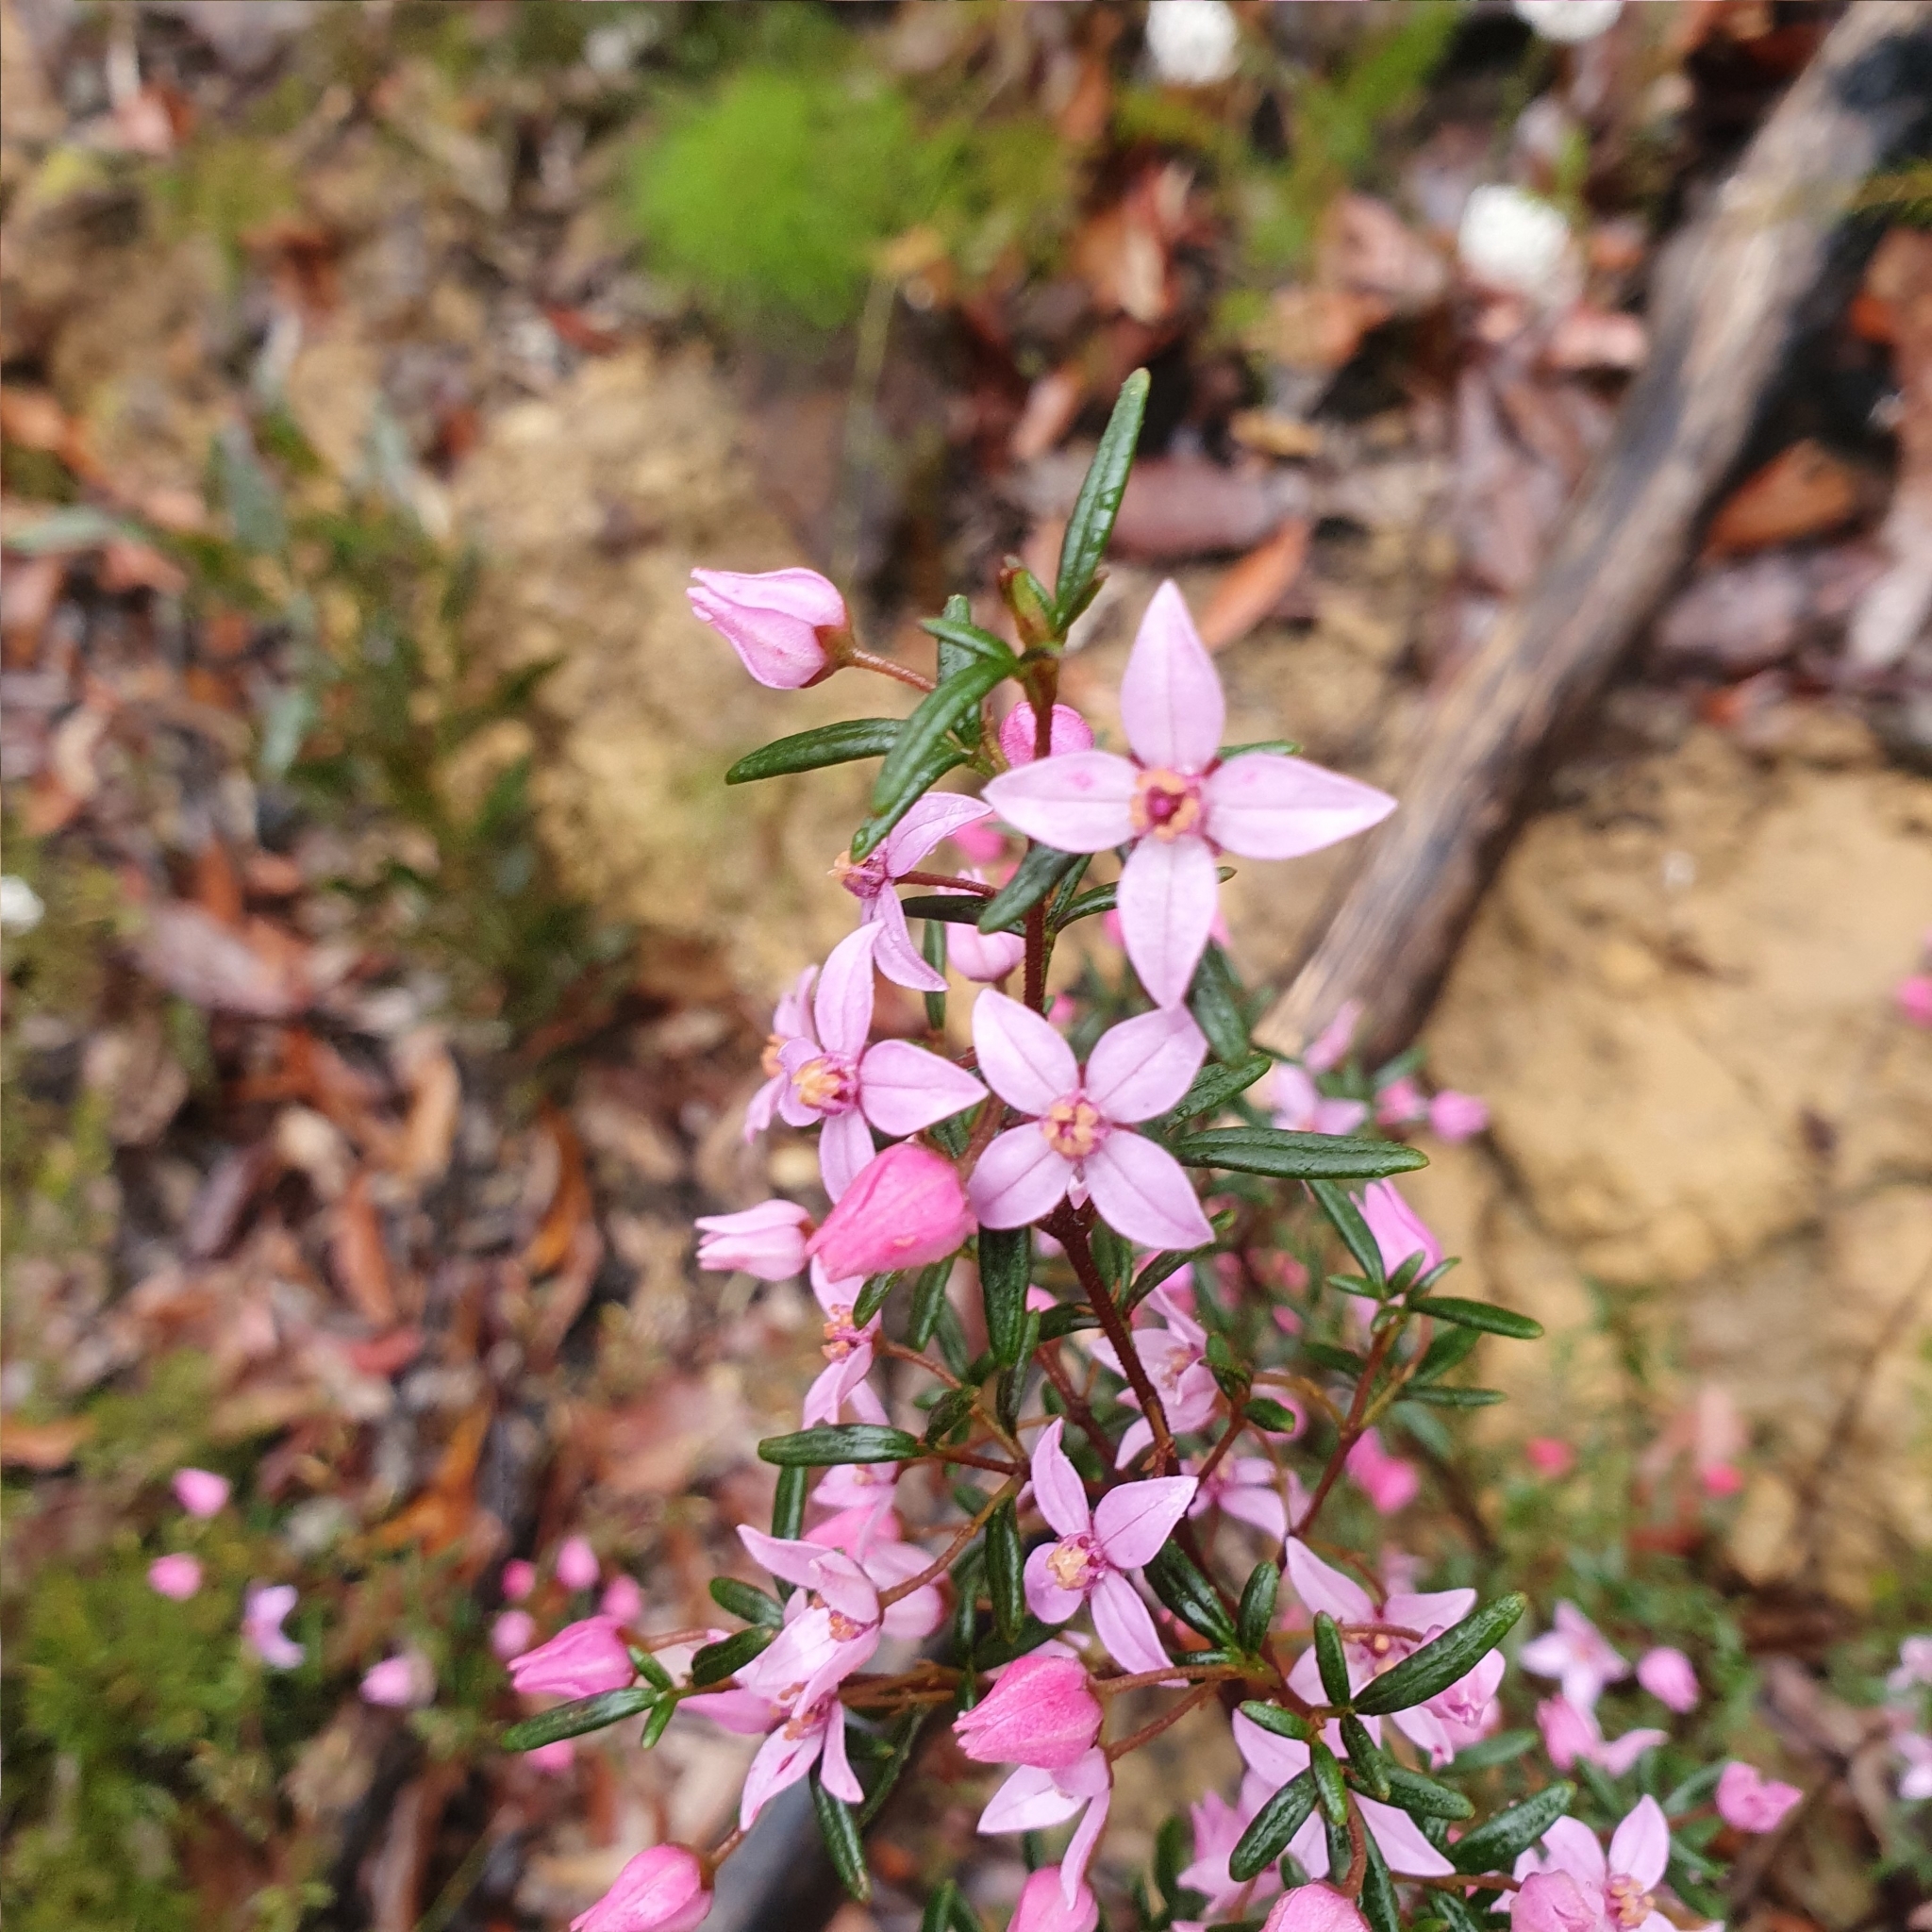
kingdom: Plantae
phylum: Tracheophyta
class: Magnoliopsida
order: Sapindales
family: Rutaceae
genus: Boronia
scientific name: Boronia ledifolia
